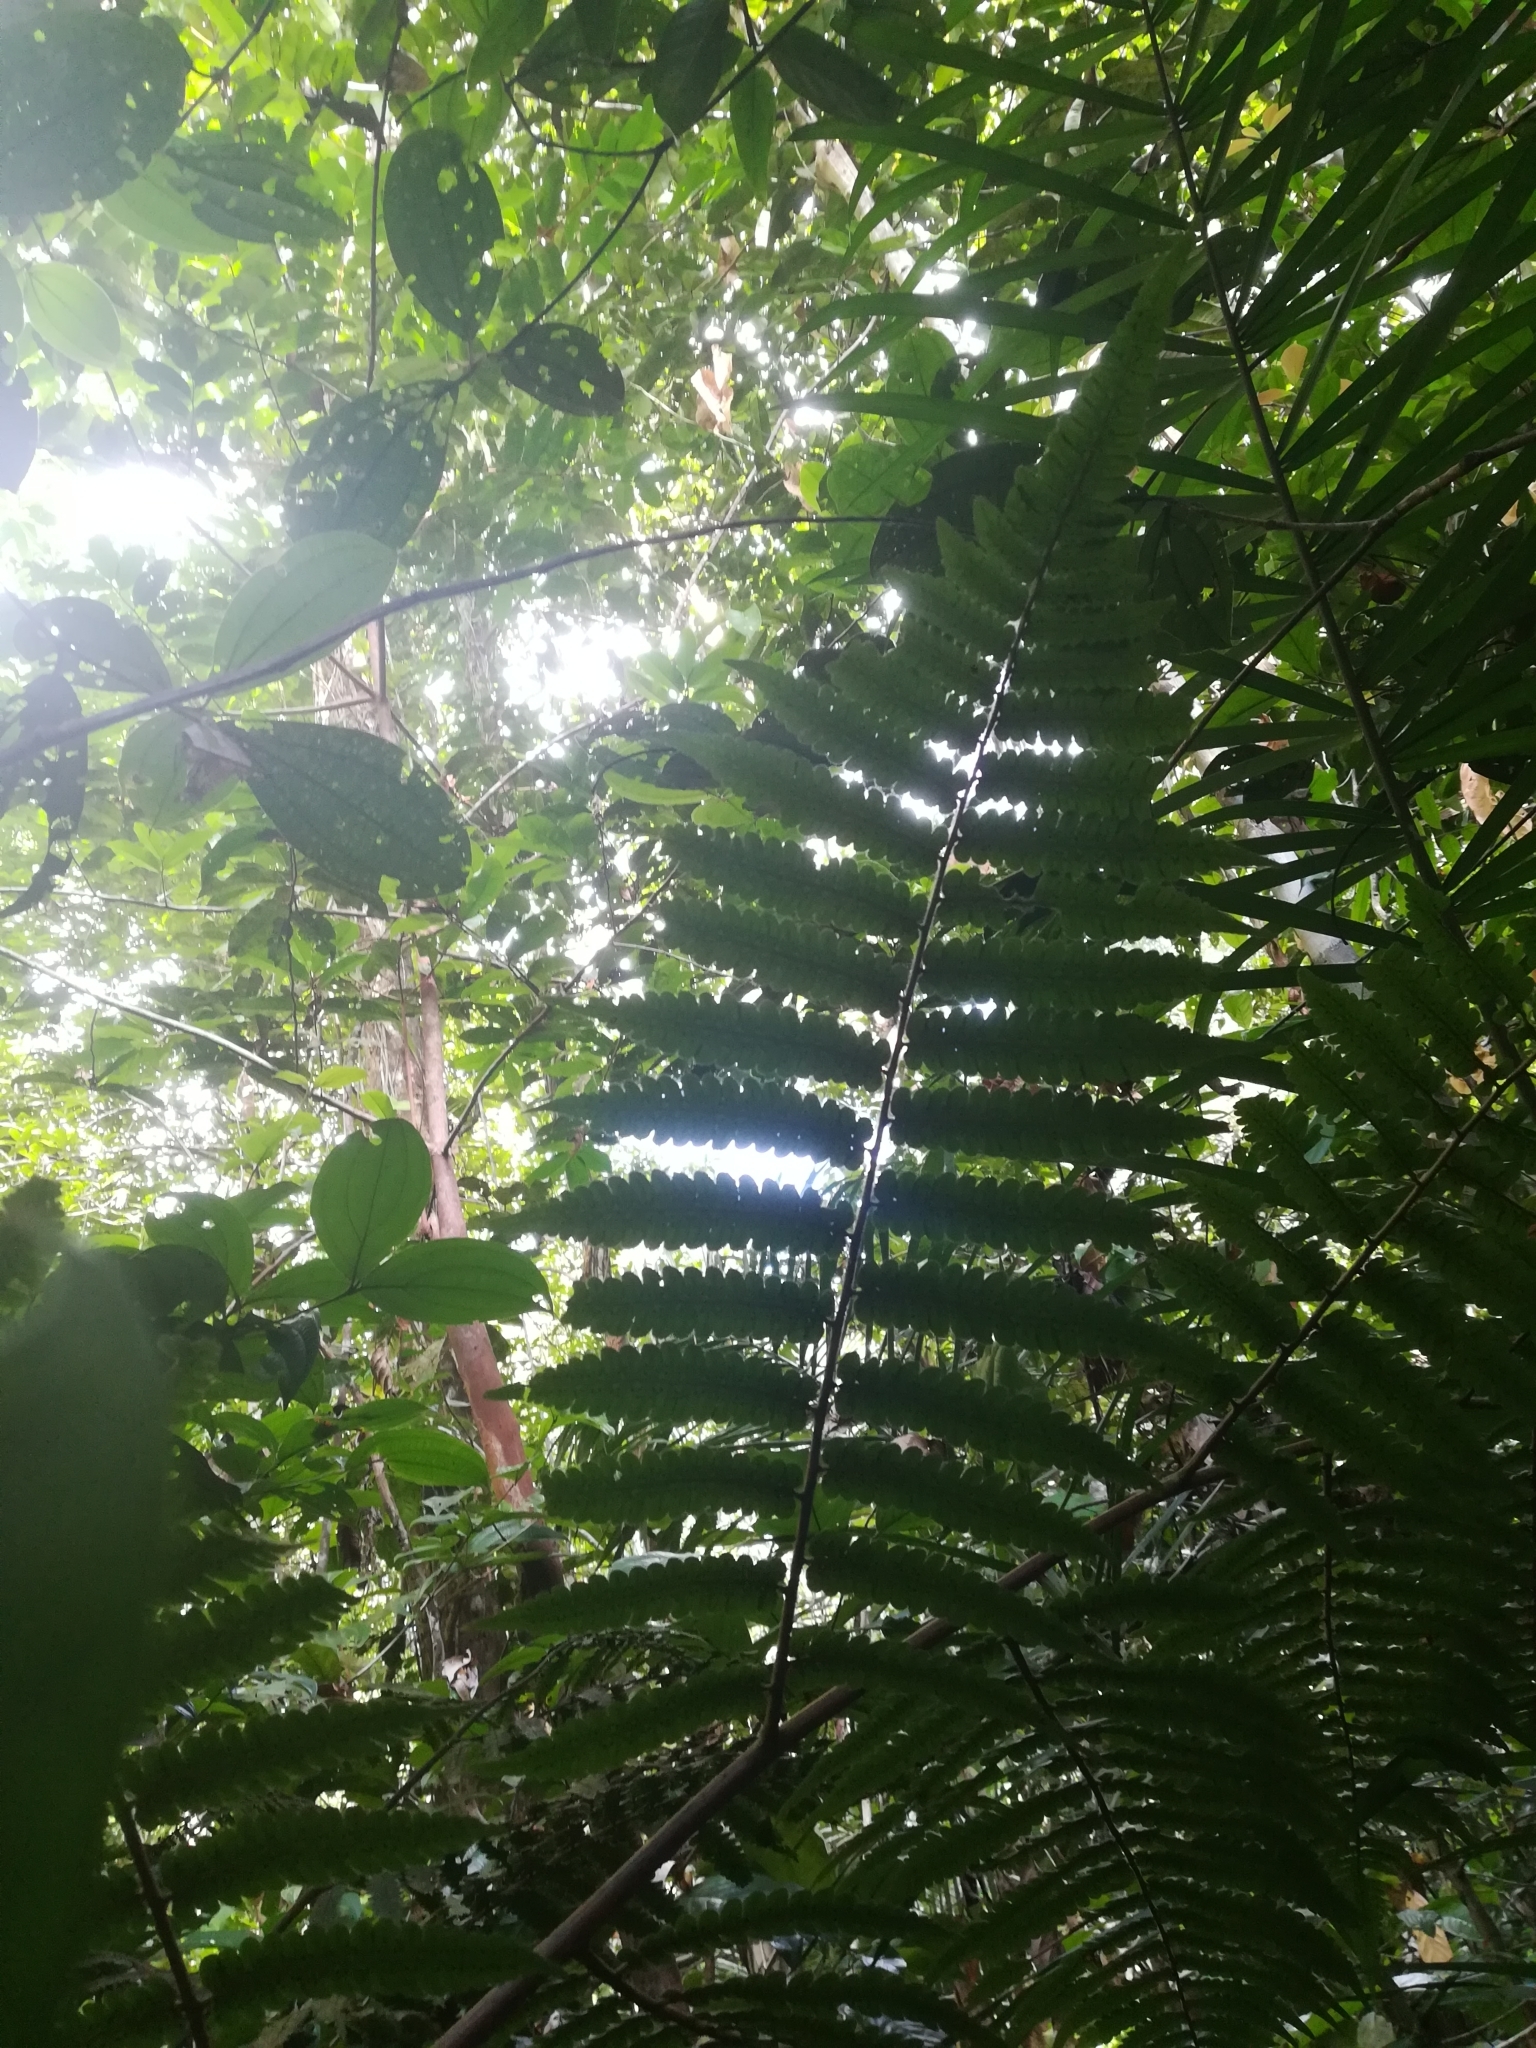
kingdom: Plantae
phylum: Tracheophyta
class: Polypodiopsida
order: Cyatheales
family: Cyatheaceae
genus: Cyathea
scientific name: Cyathea
